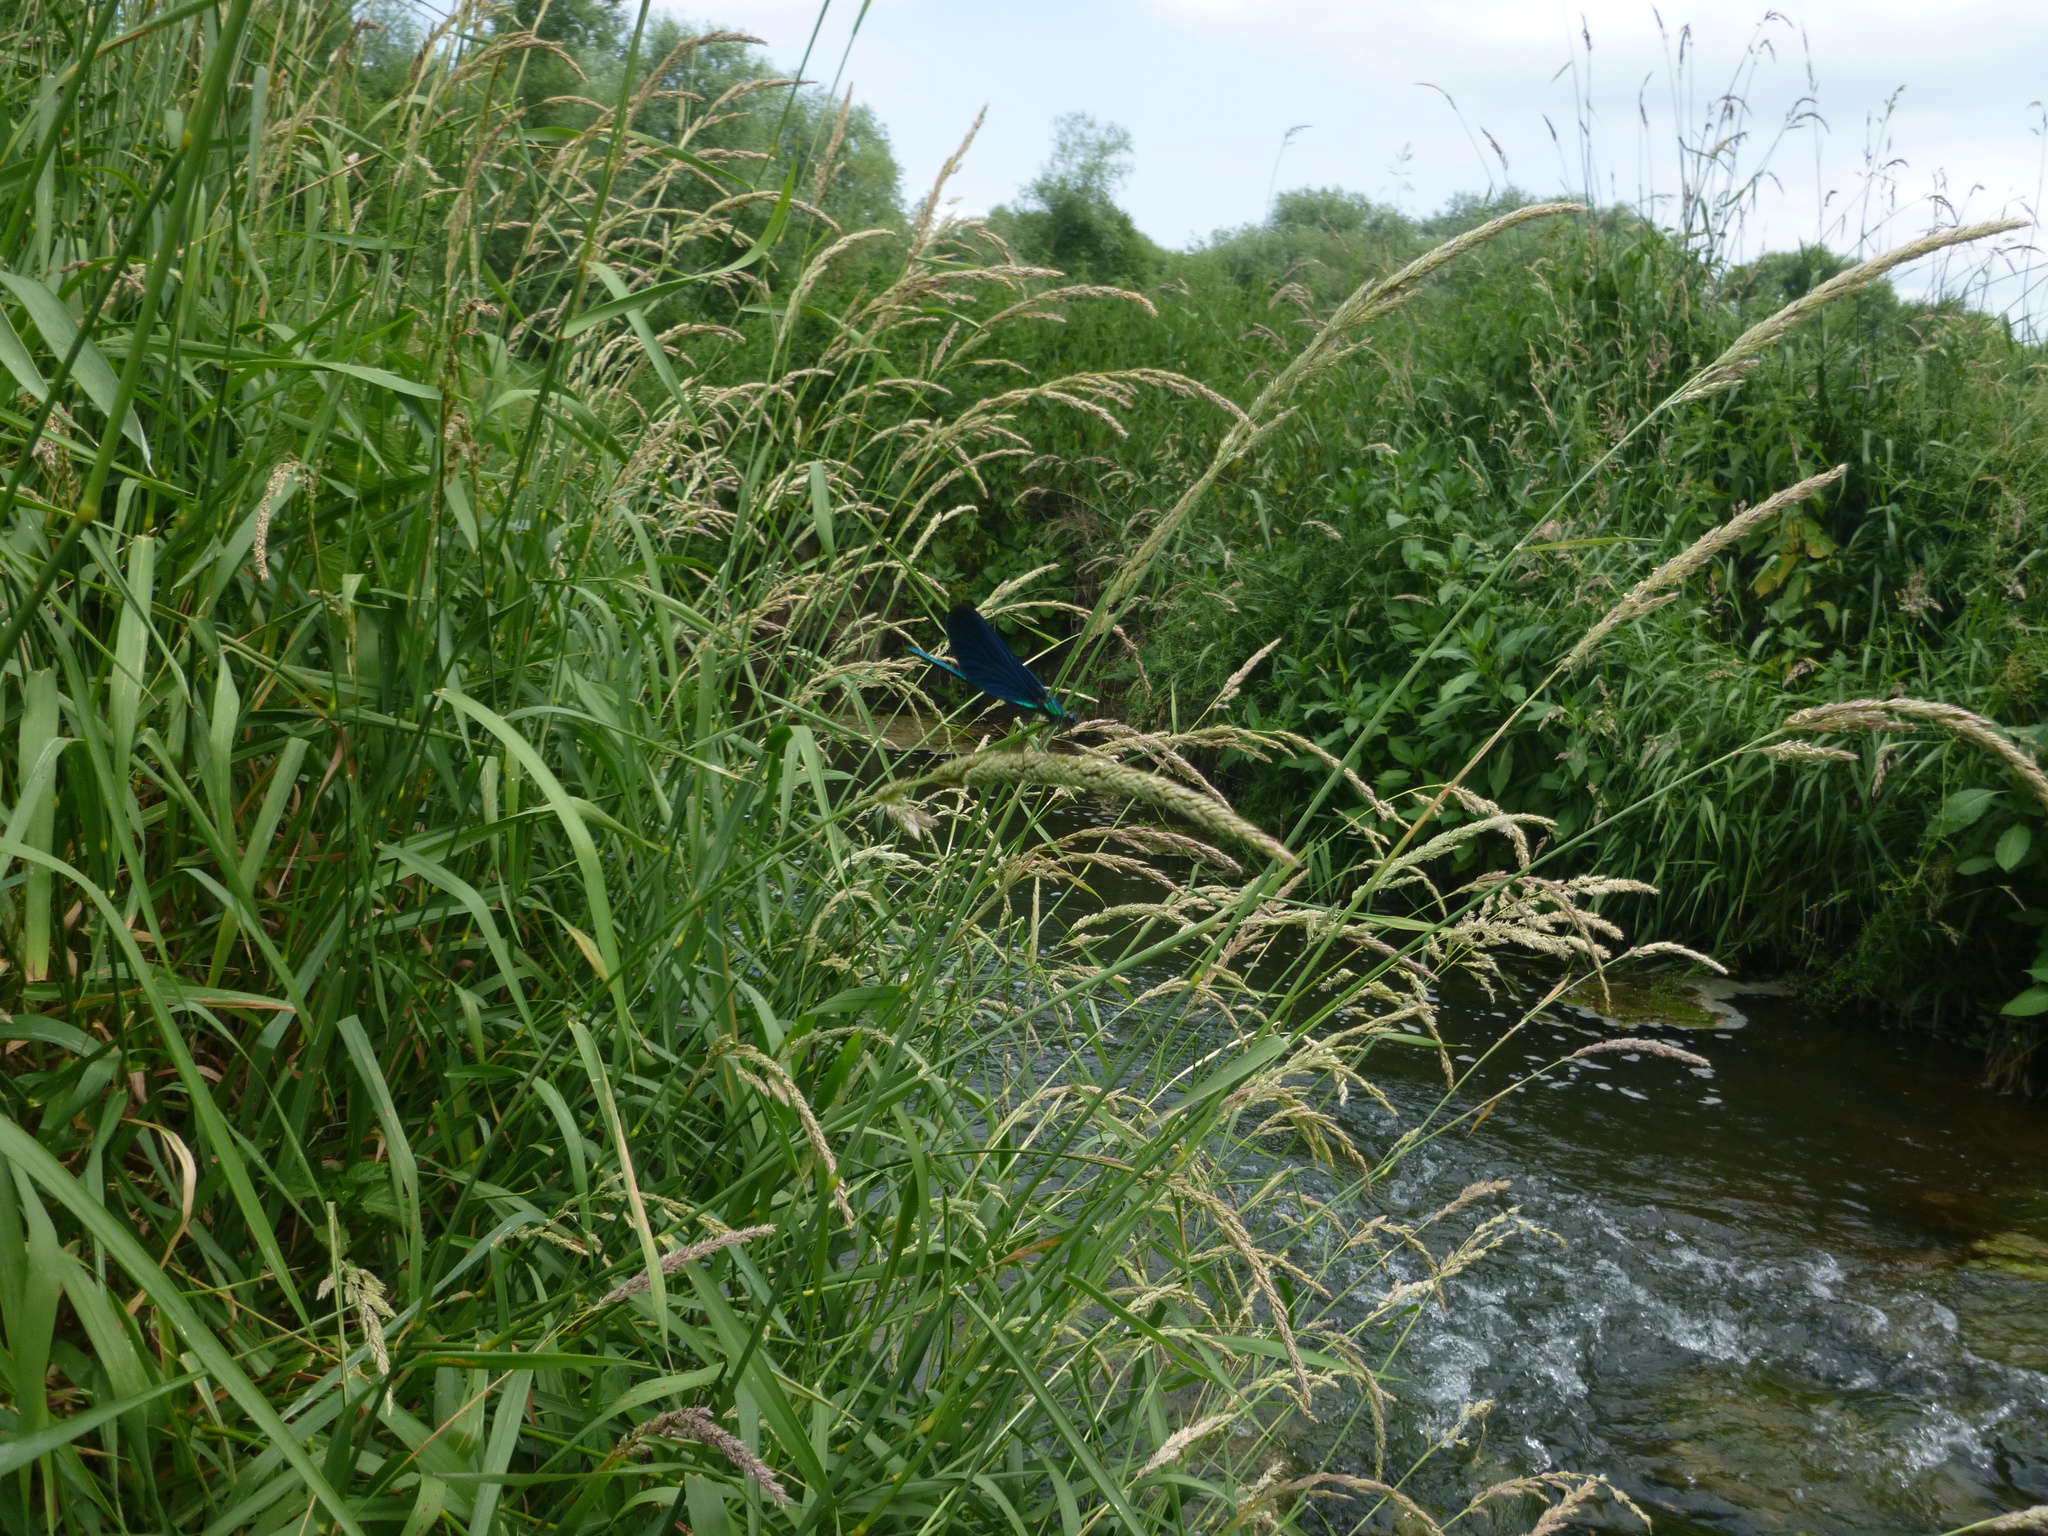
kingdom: Plantae
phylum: Tracheophyta
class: Liliopsida
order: Poales
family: Poaceae
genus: Phalaris
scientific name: Phalaris arundinacea
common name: Reed canary-grass
